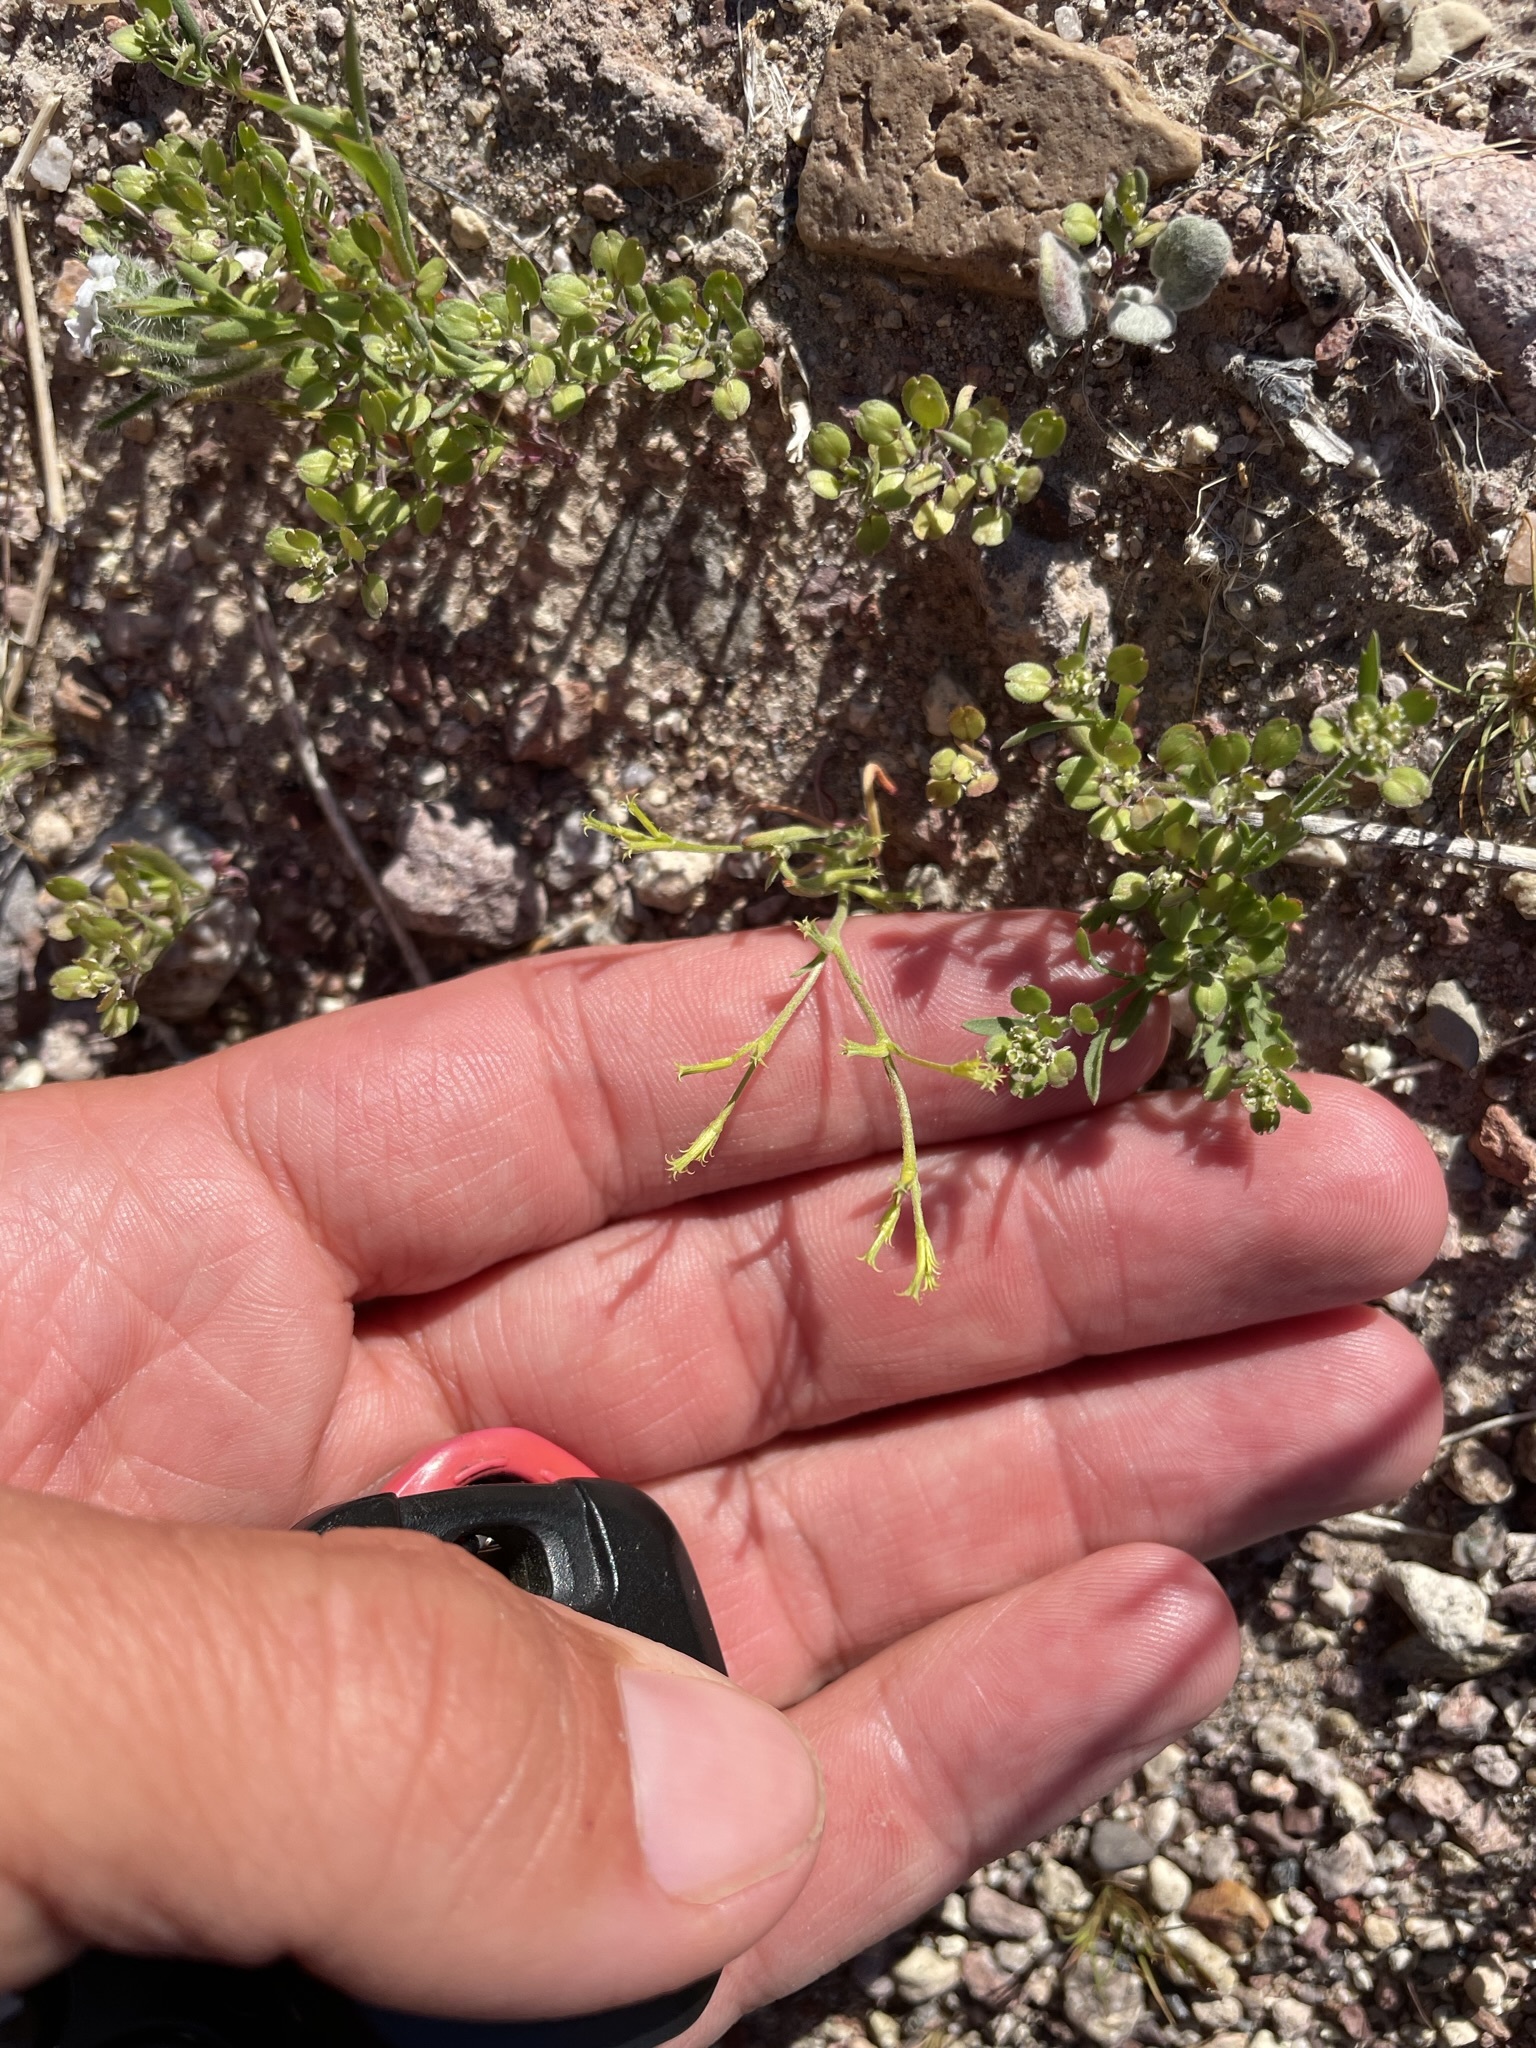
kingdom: Plantae
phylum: Tracheophyta
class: Magnoliopsida
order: Caryophyllales
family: Polygonaceae
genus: Chorizanthe
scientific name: Chorizanthe brevicornu
